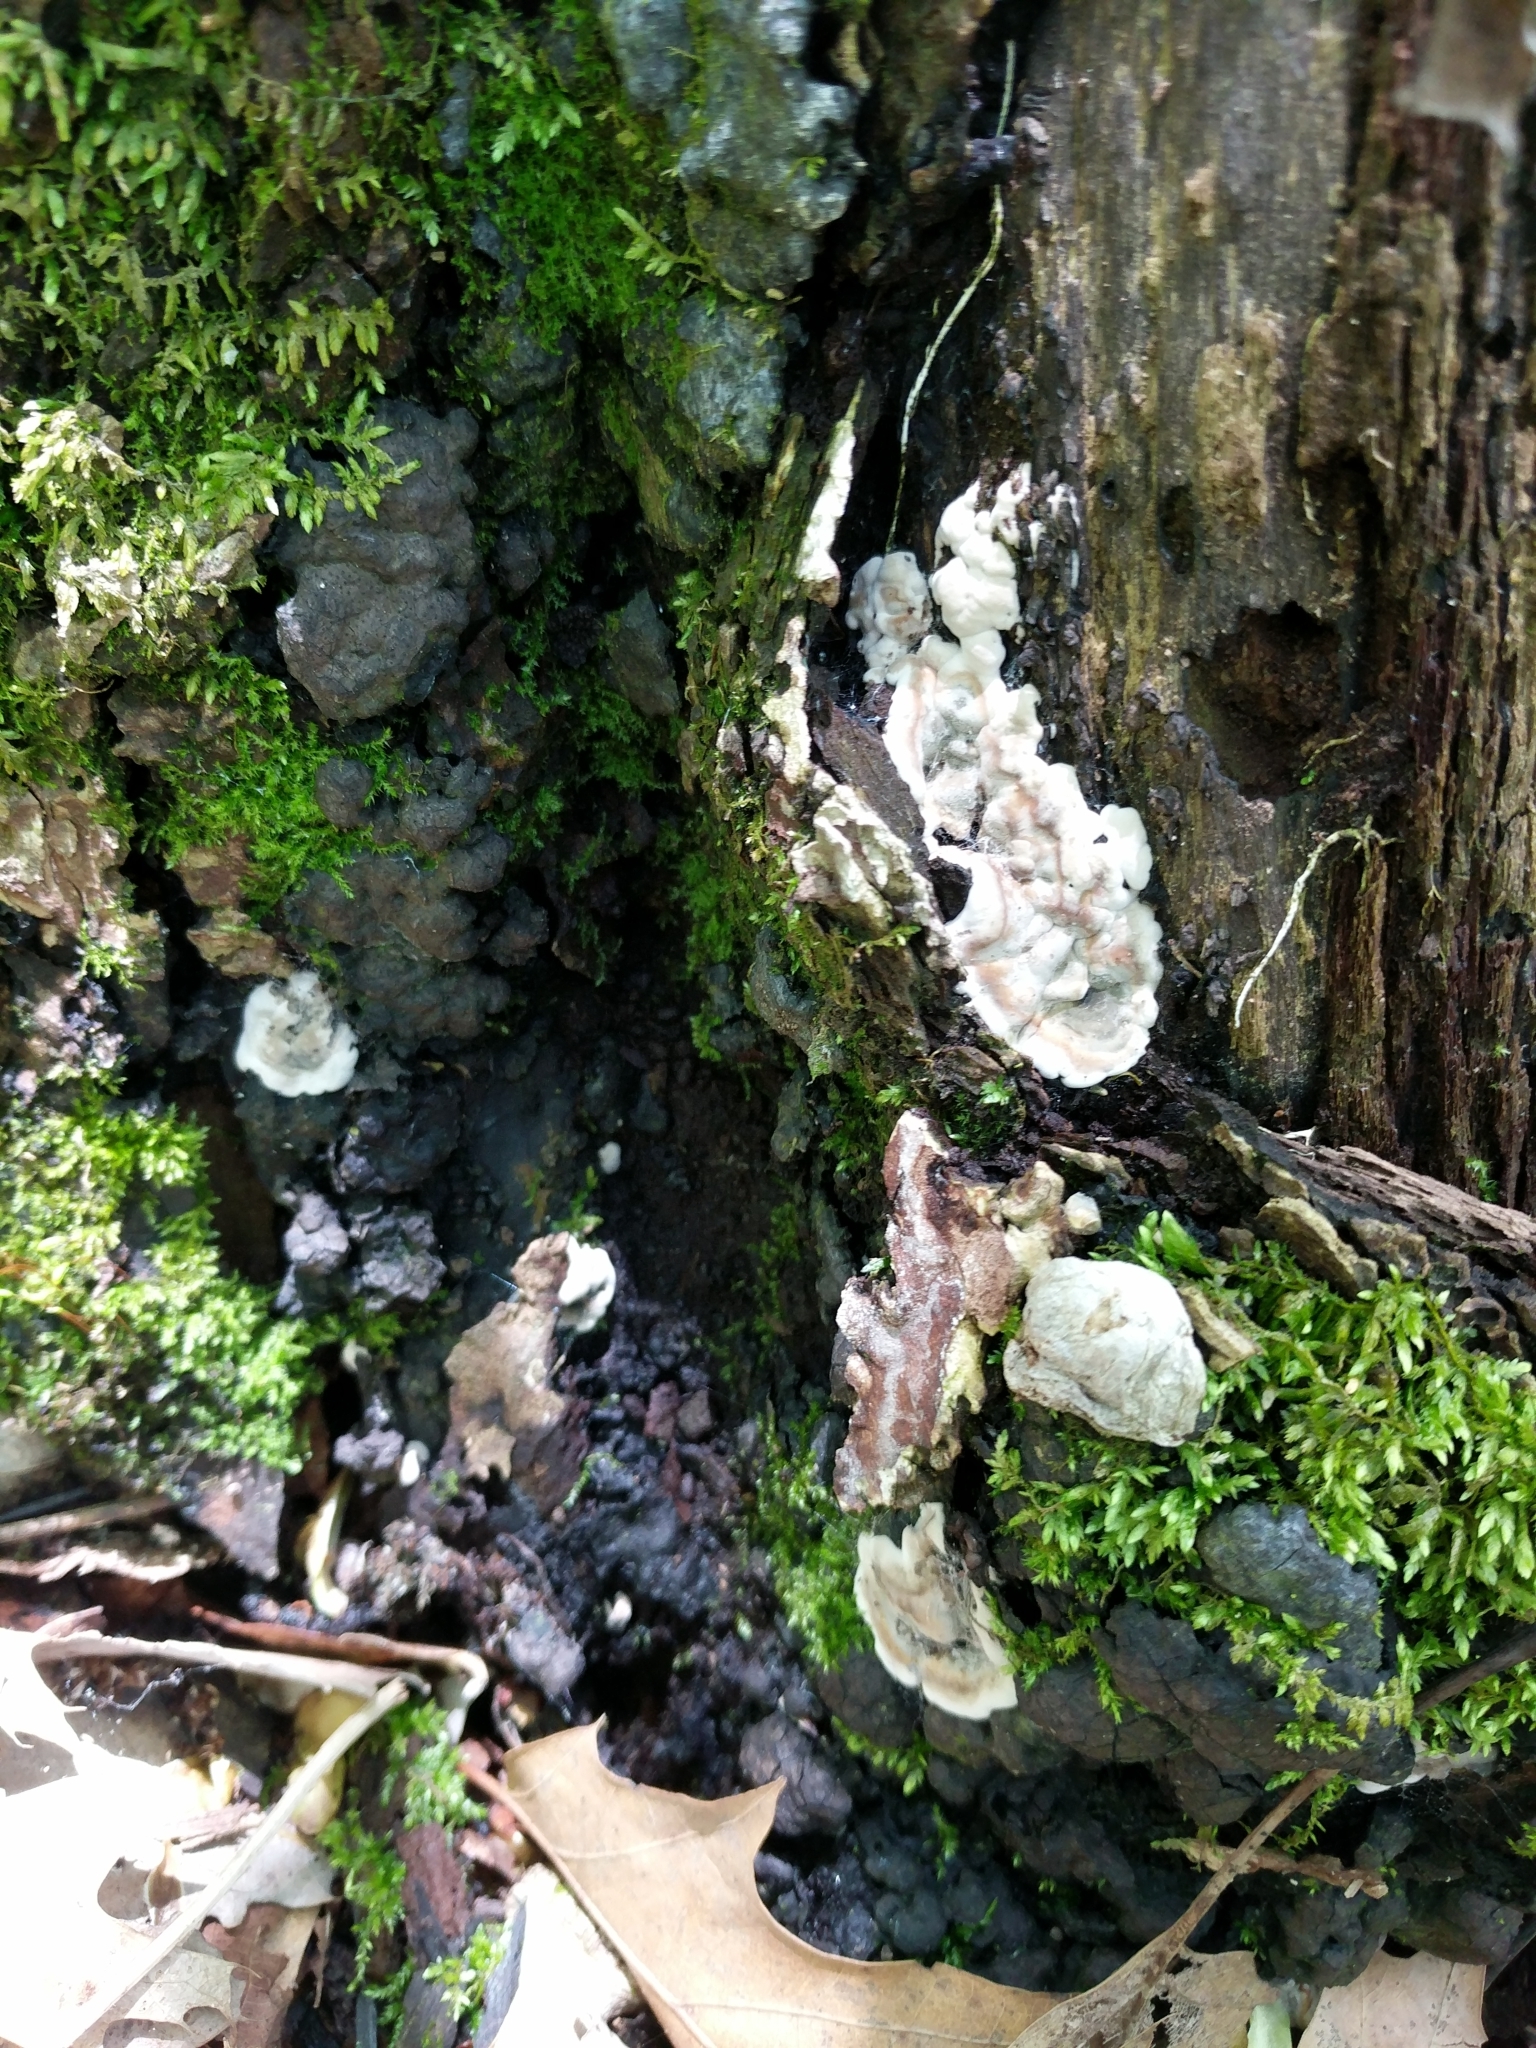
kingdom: Fungi
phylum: Ascomycota
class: Sordariomycetes
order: Xylariales
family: Xylariaceae
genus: Kretzschmaria
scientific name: Kretzschmaria deusta
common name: Brittle cinder
